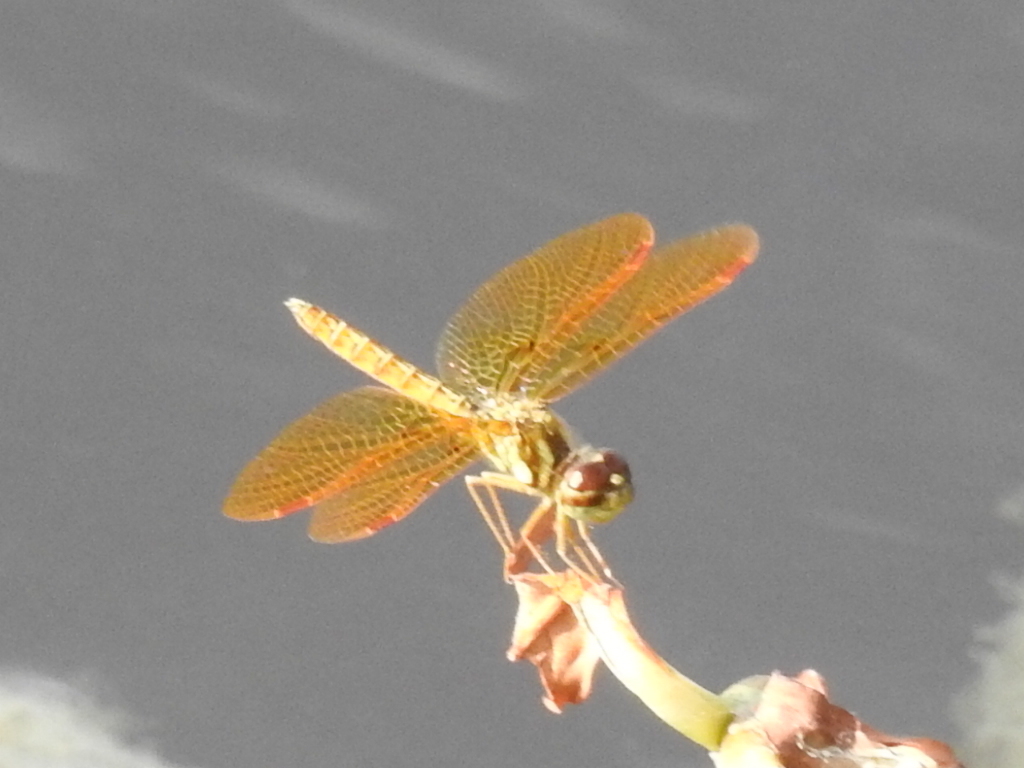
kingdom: Animalia
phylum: Arthropoda
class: Insecta
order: Odonata
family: Libellulidae
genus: Perithemis
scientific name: Perithemis tenera
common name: Eastern amberwing
